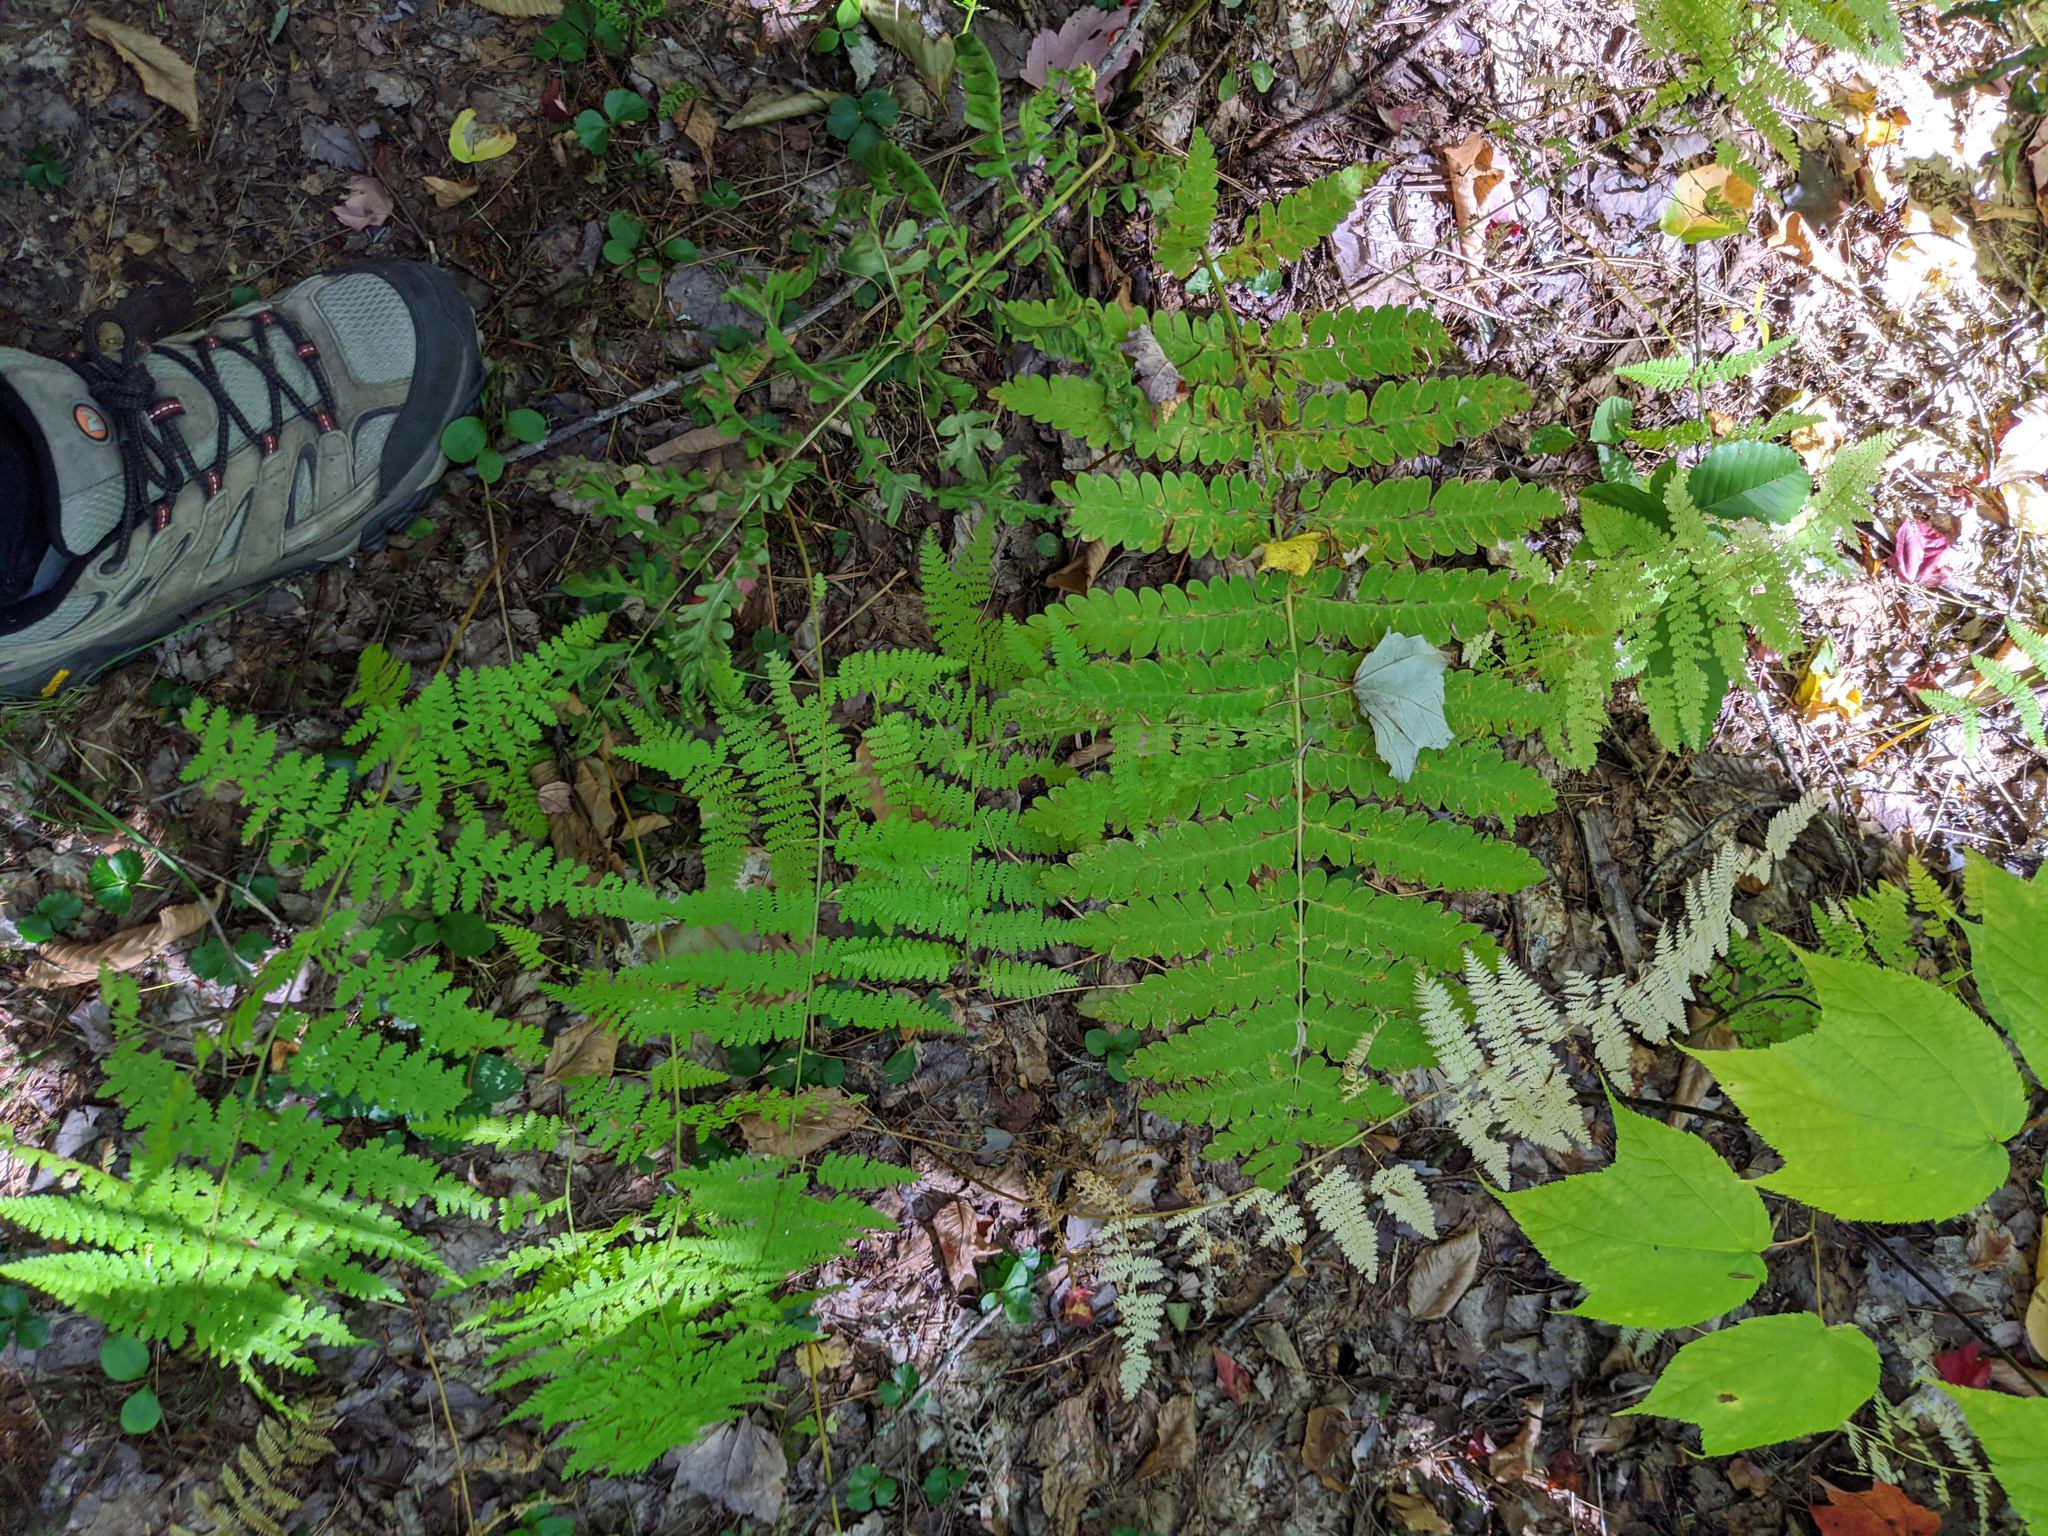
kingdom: Plantae
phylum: Tracheophyta
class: Polypodiopsida
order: Osmundales
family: Osmundaceae
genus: Claytosmunda
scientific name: Claytosmunda claytoniana
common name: Clayton's fern
